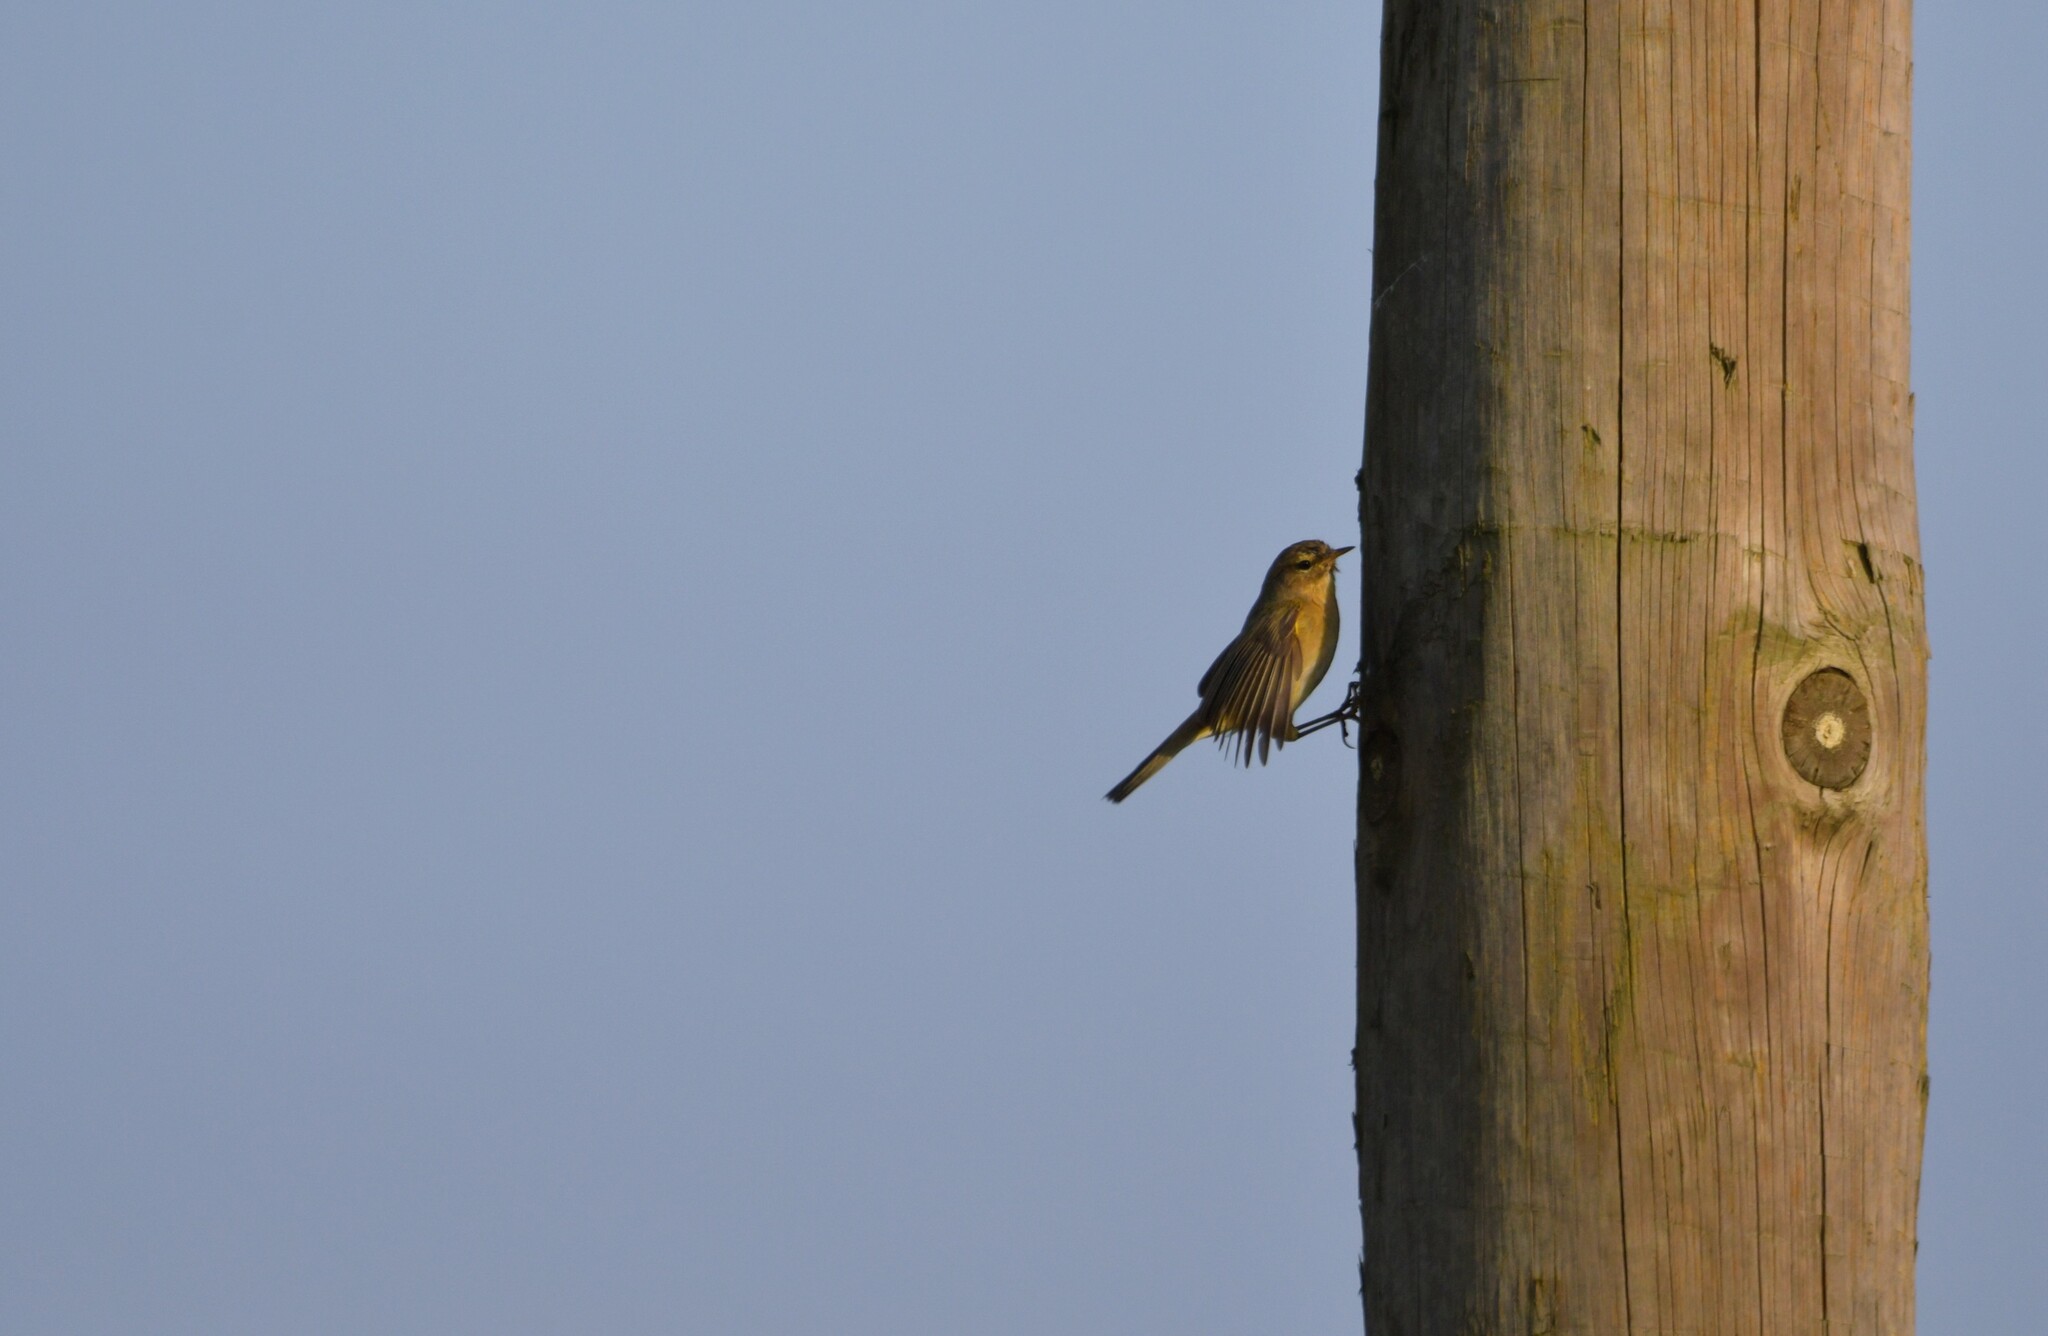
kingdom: Animalia
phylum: Chordata
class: Aves
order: Passeriformes
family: Phylloscopidae
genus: Phylloscopus
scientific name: Phylloscopus collybita
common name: Common chiffchaff
